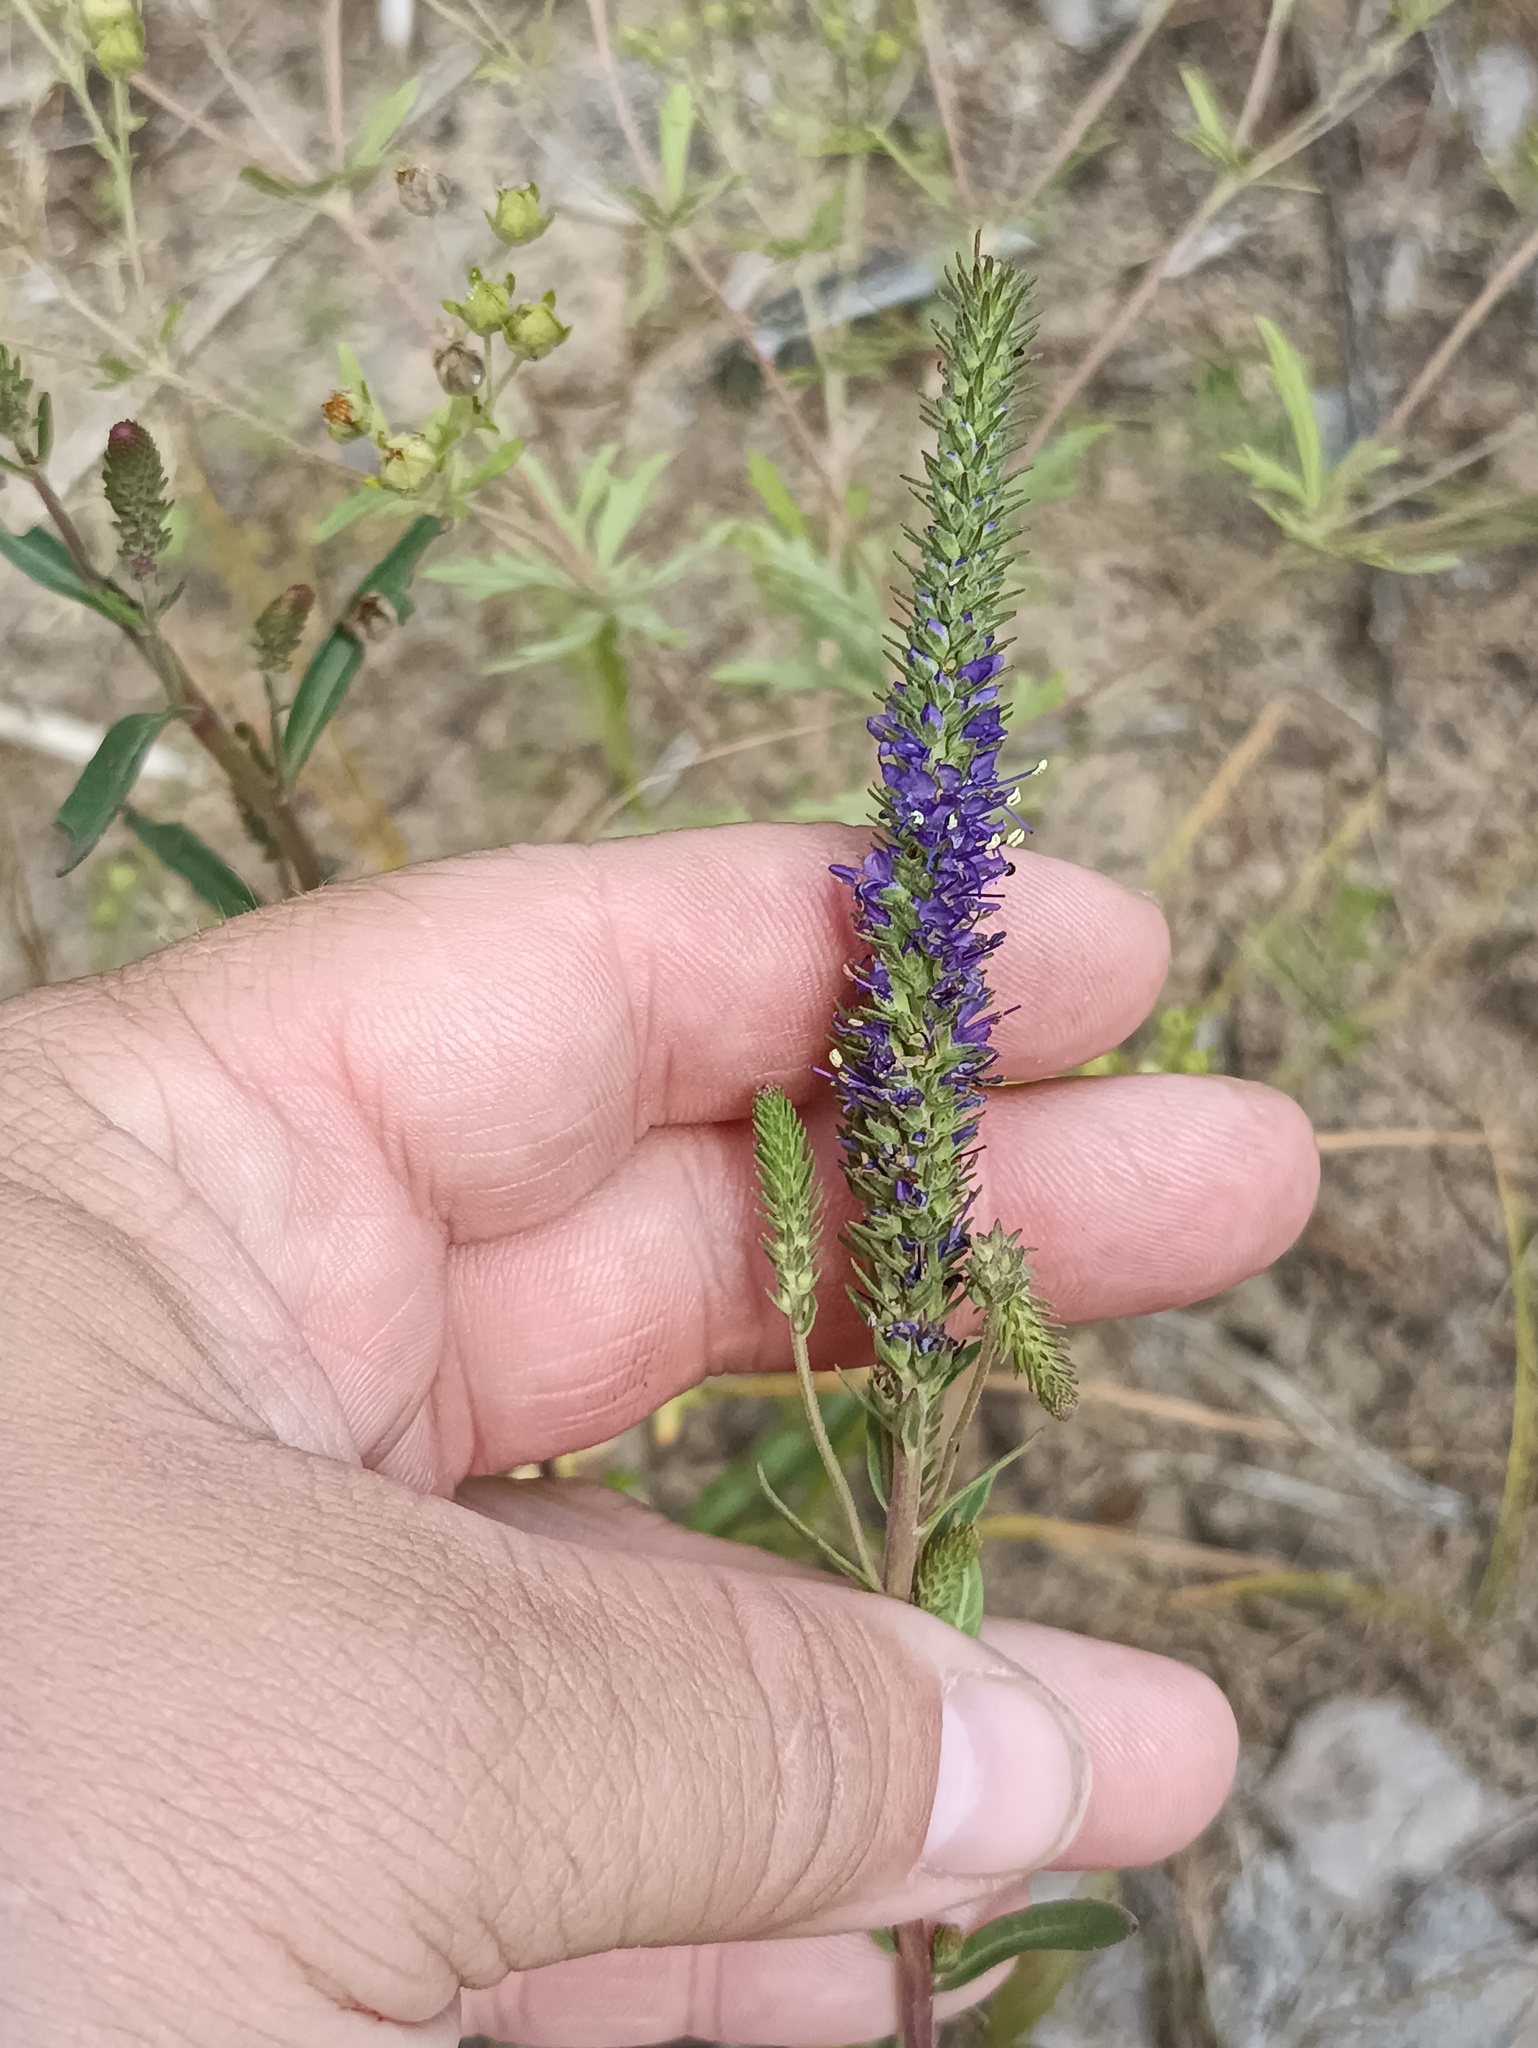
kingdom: Plantae
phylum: Tracheophyta
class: Magnoliopsida
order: Lamiales
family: Plantaginaceae
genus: Veronica
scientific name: Veronica spicata
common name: Spiked speedwell
